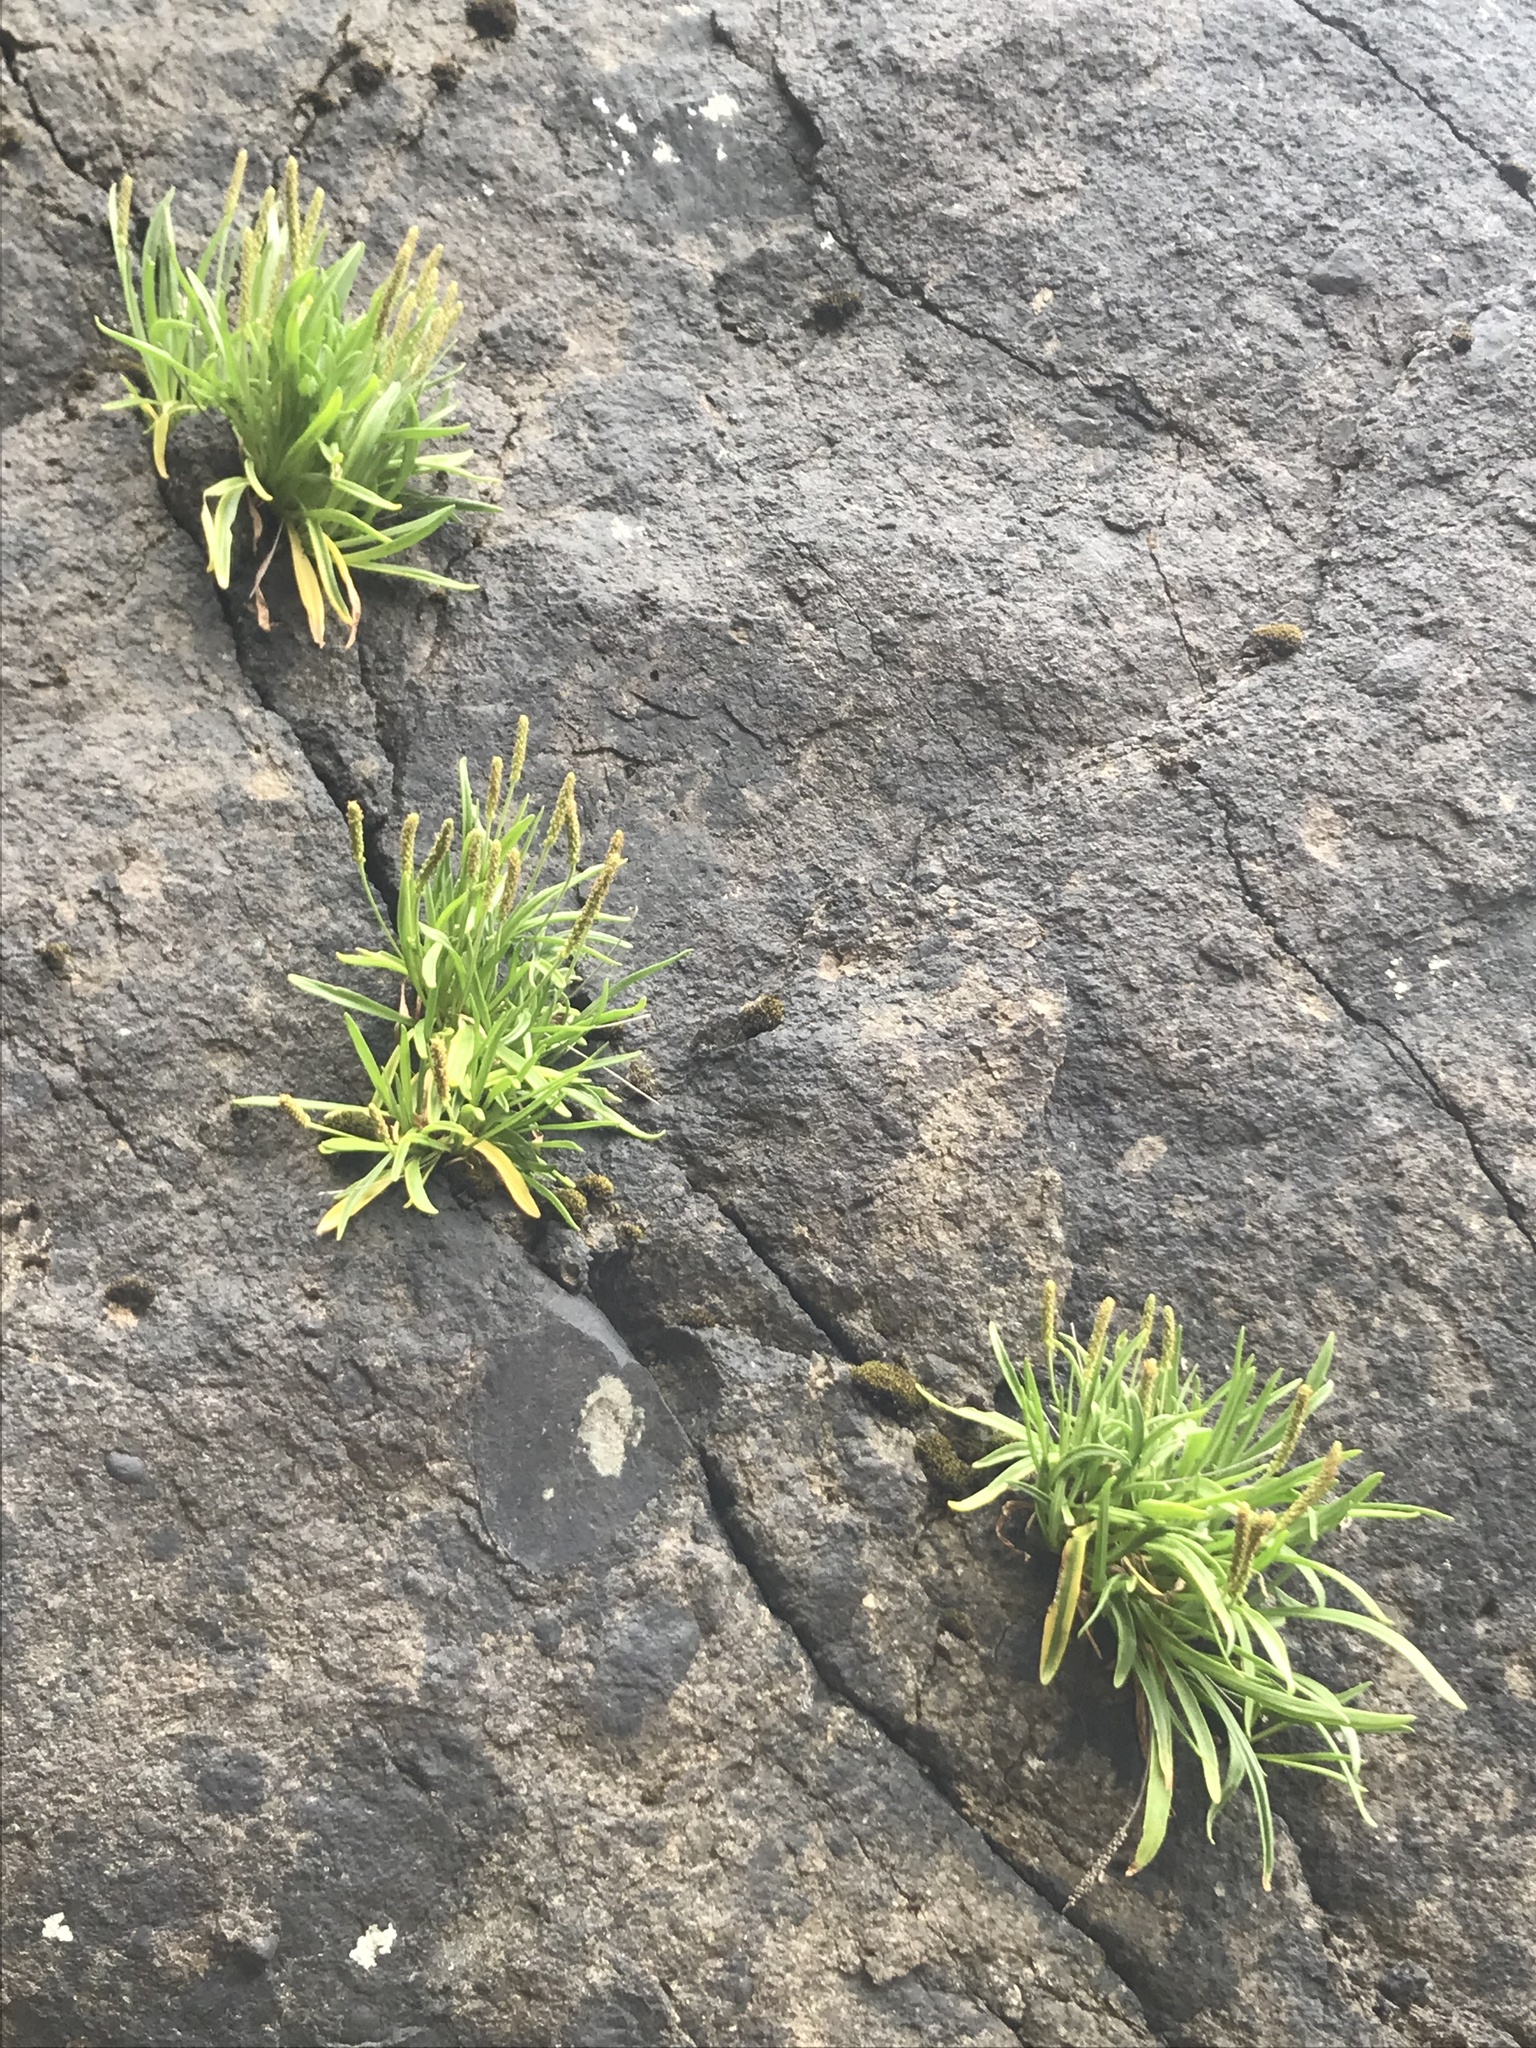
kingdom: Plantae
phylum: Tracheophyta
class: Magnoliopsida
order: Lamiales
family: Plantaginaceae
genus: Plantago
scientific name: Plantago maritima
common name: Sea plantain
